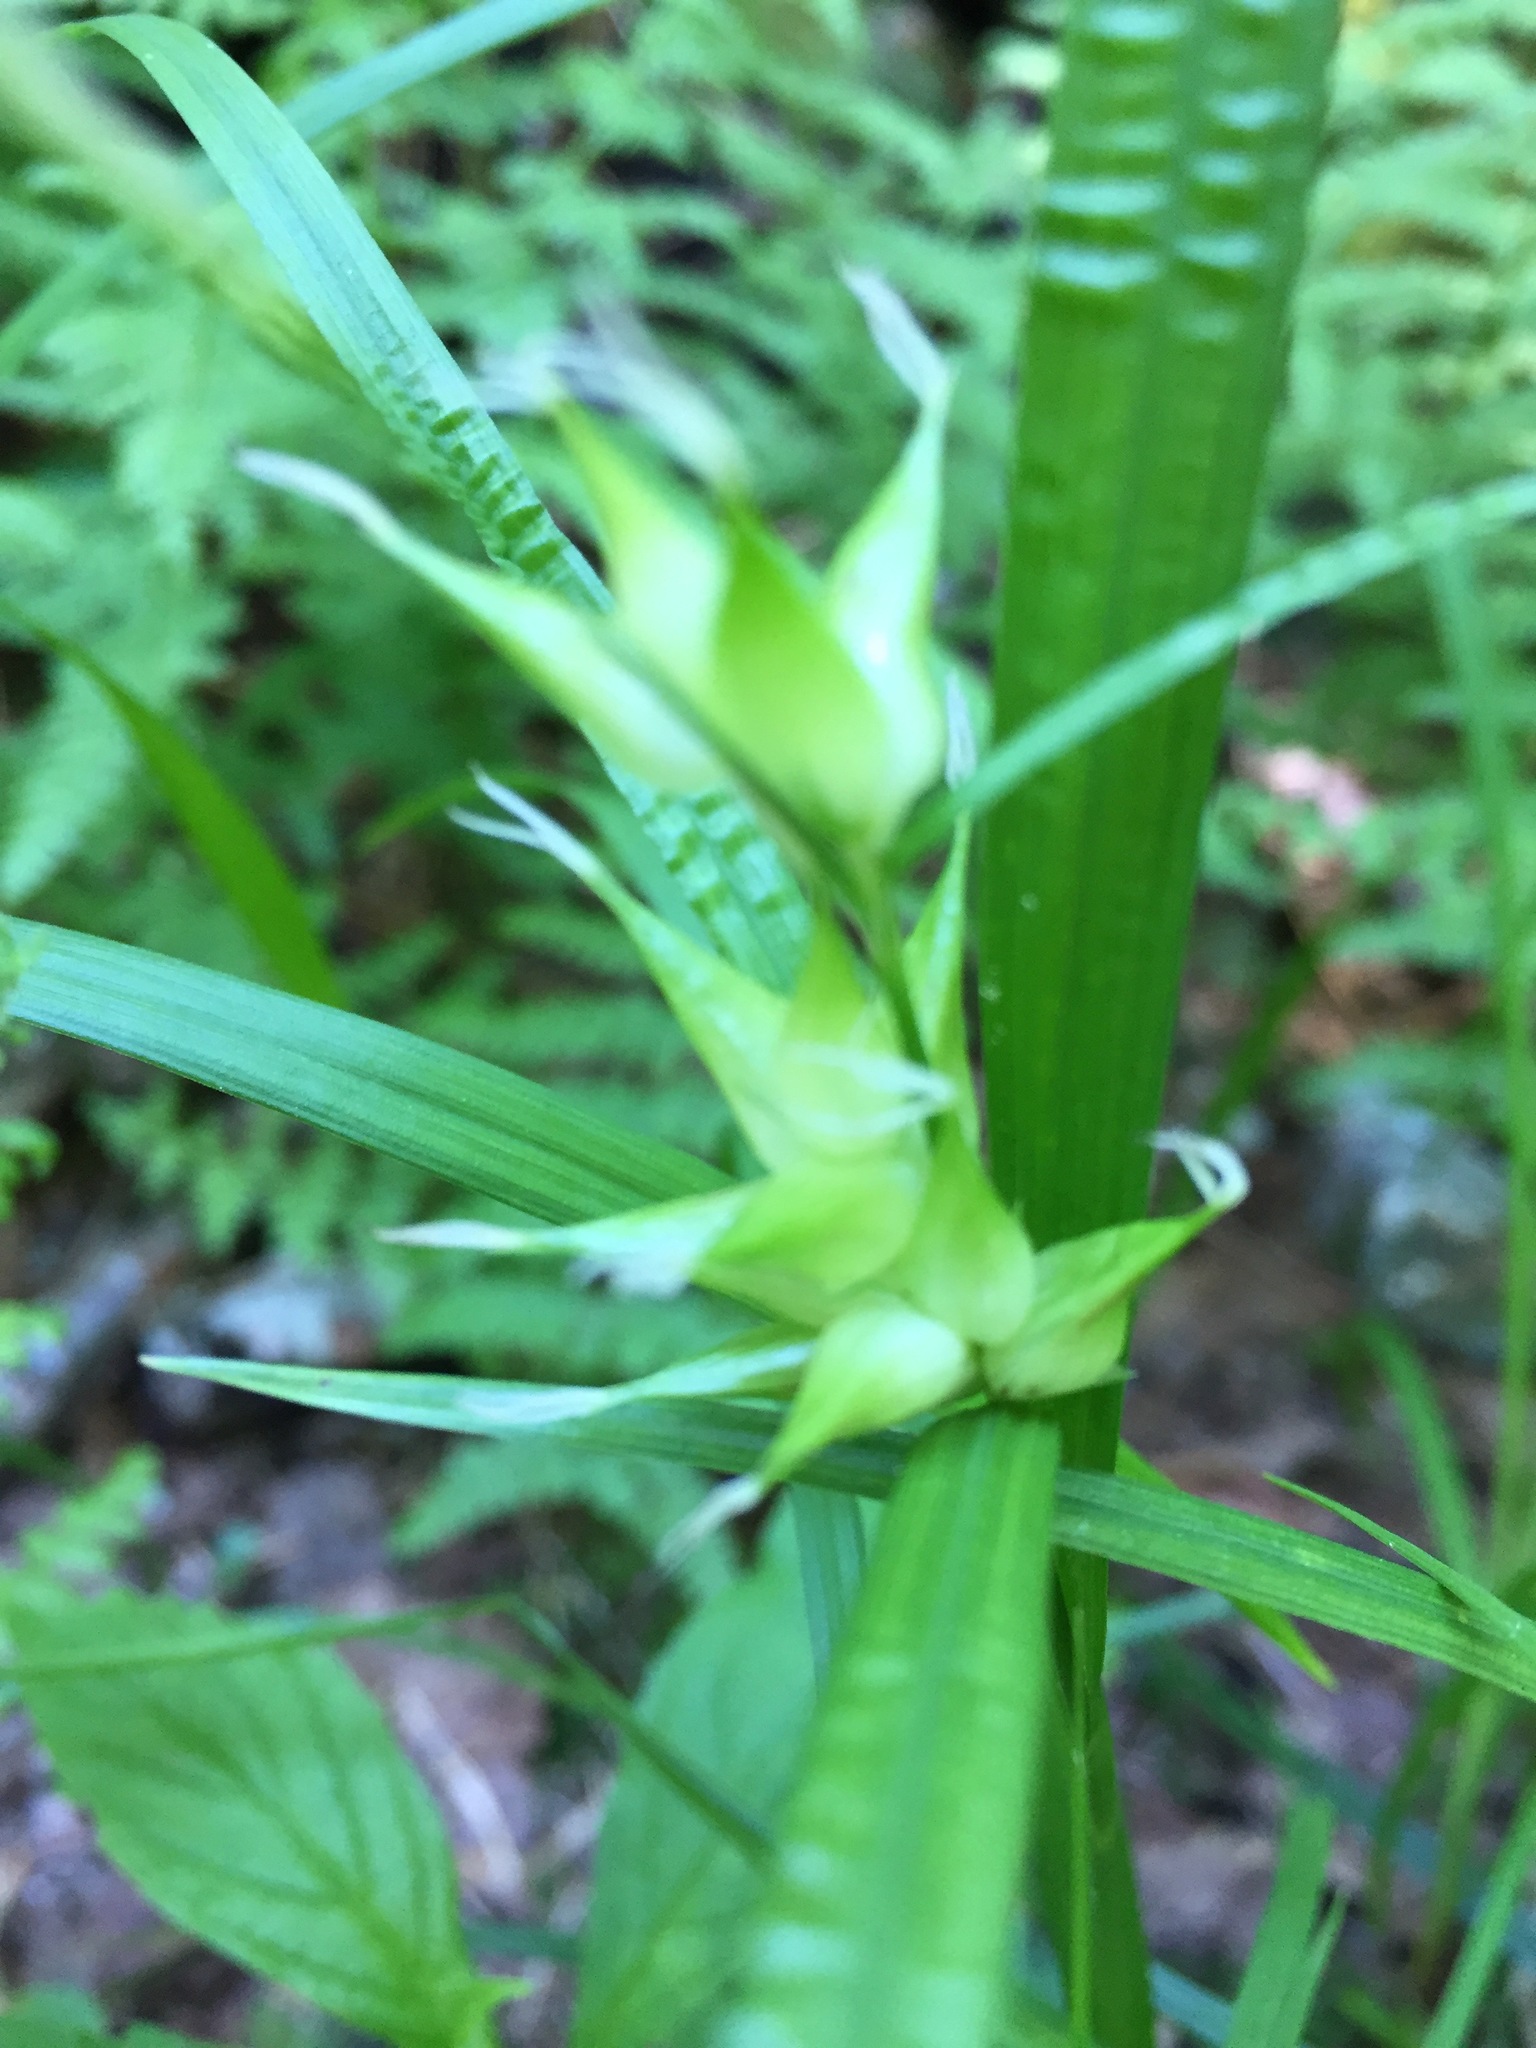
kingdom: Plantae
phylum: Tracheophyta
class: Liliopsida
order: Poales
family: Cyperaceae
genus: Carex
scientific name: Carex intumescens
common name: Greater bladder sedge
